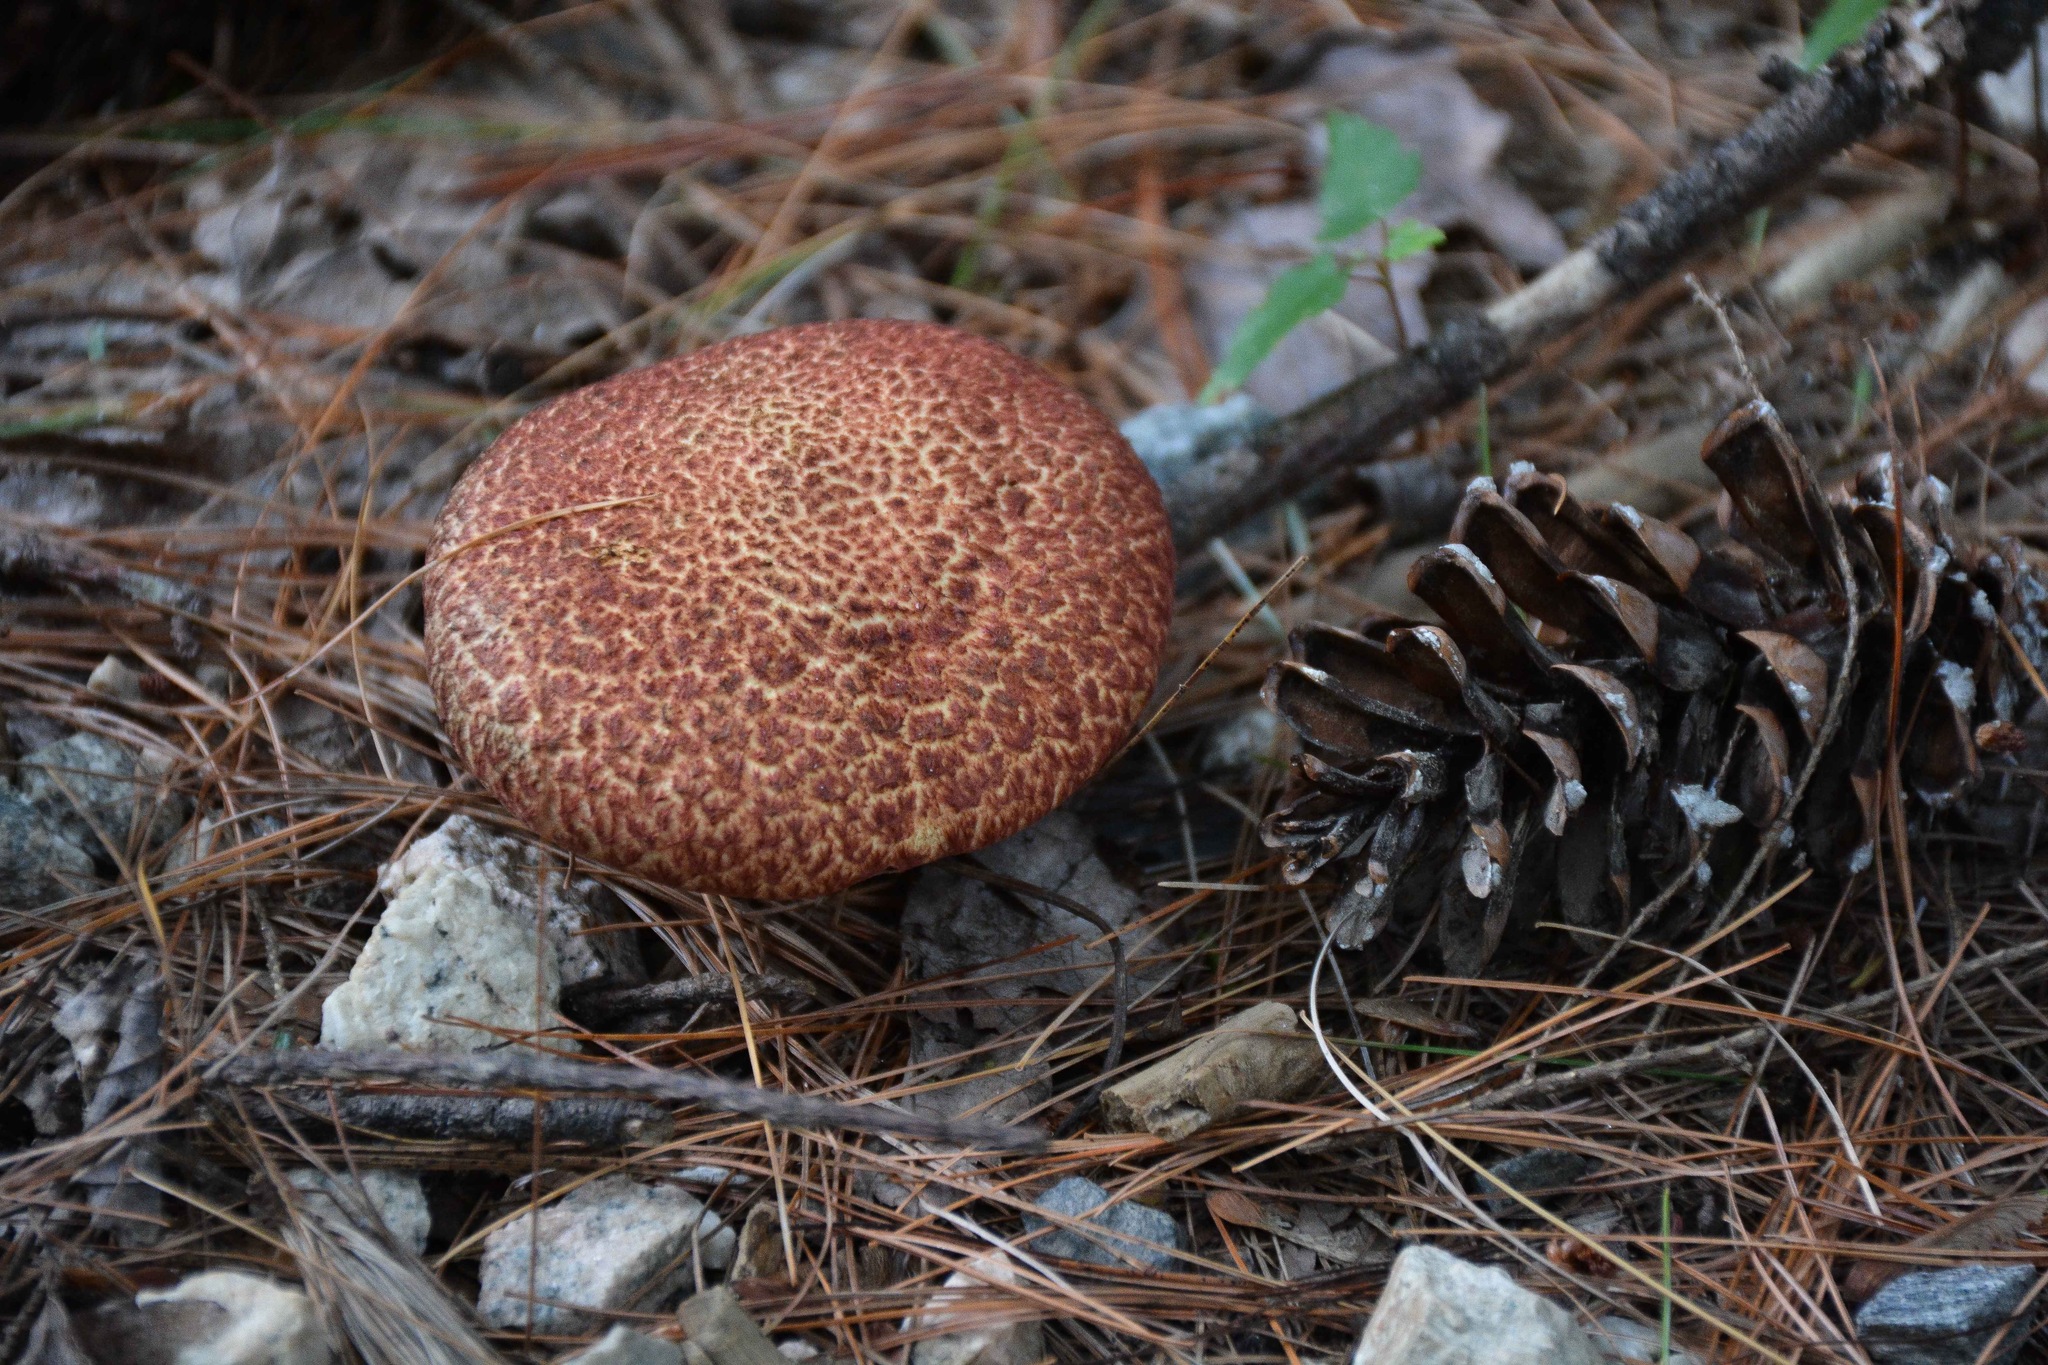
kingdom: Fungi
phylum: Basidiomycota
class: Agaricomycetes
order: Boletales
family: Suillaceae
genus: Suillus
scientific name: Suillus spraguei
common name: Painted suillus
